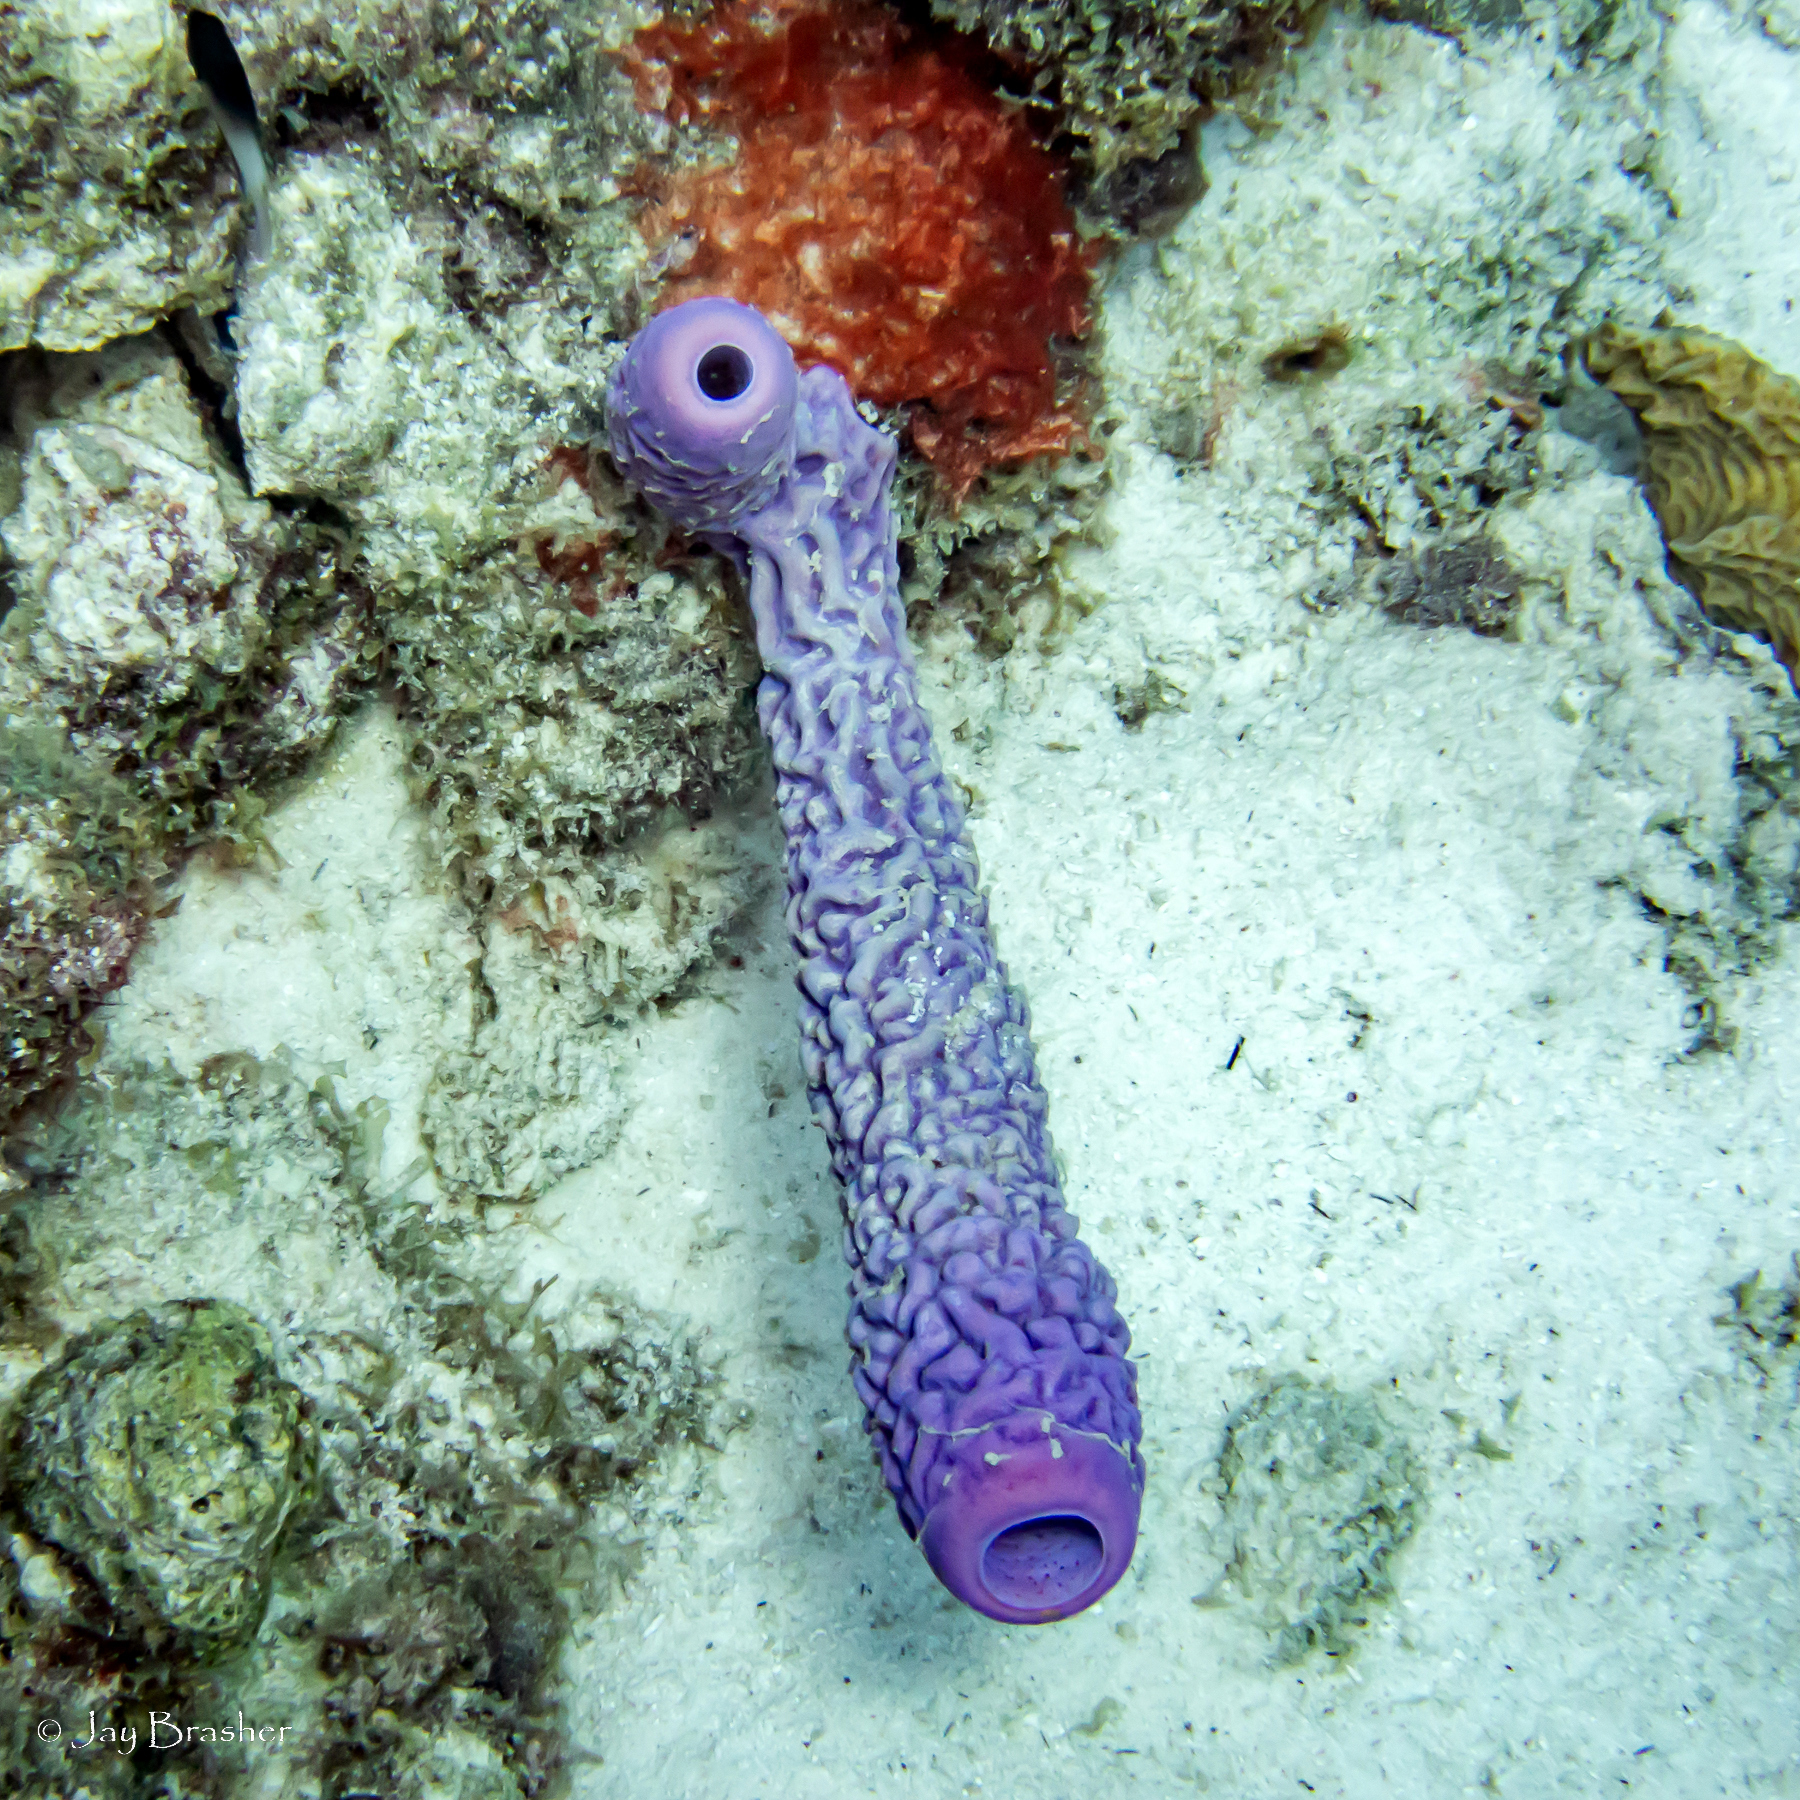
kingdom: Animalia
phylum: Porifera
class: Demospongiae
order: Verongiida
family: Aplysinidae
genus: Aplysina
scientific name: Aplysina archeri
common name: Stove-pipe sponge
